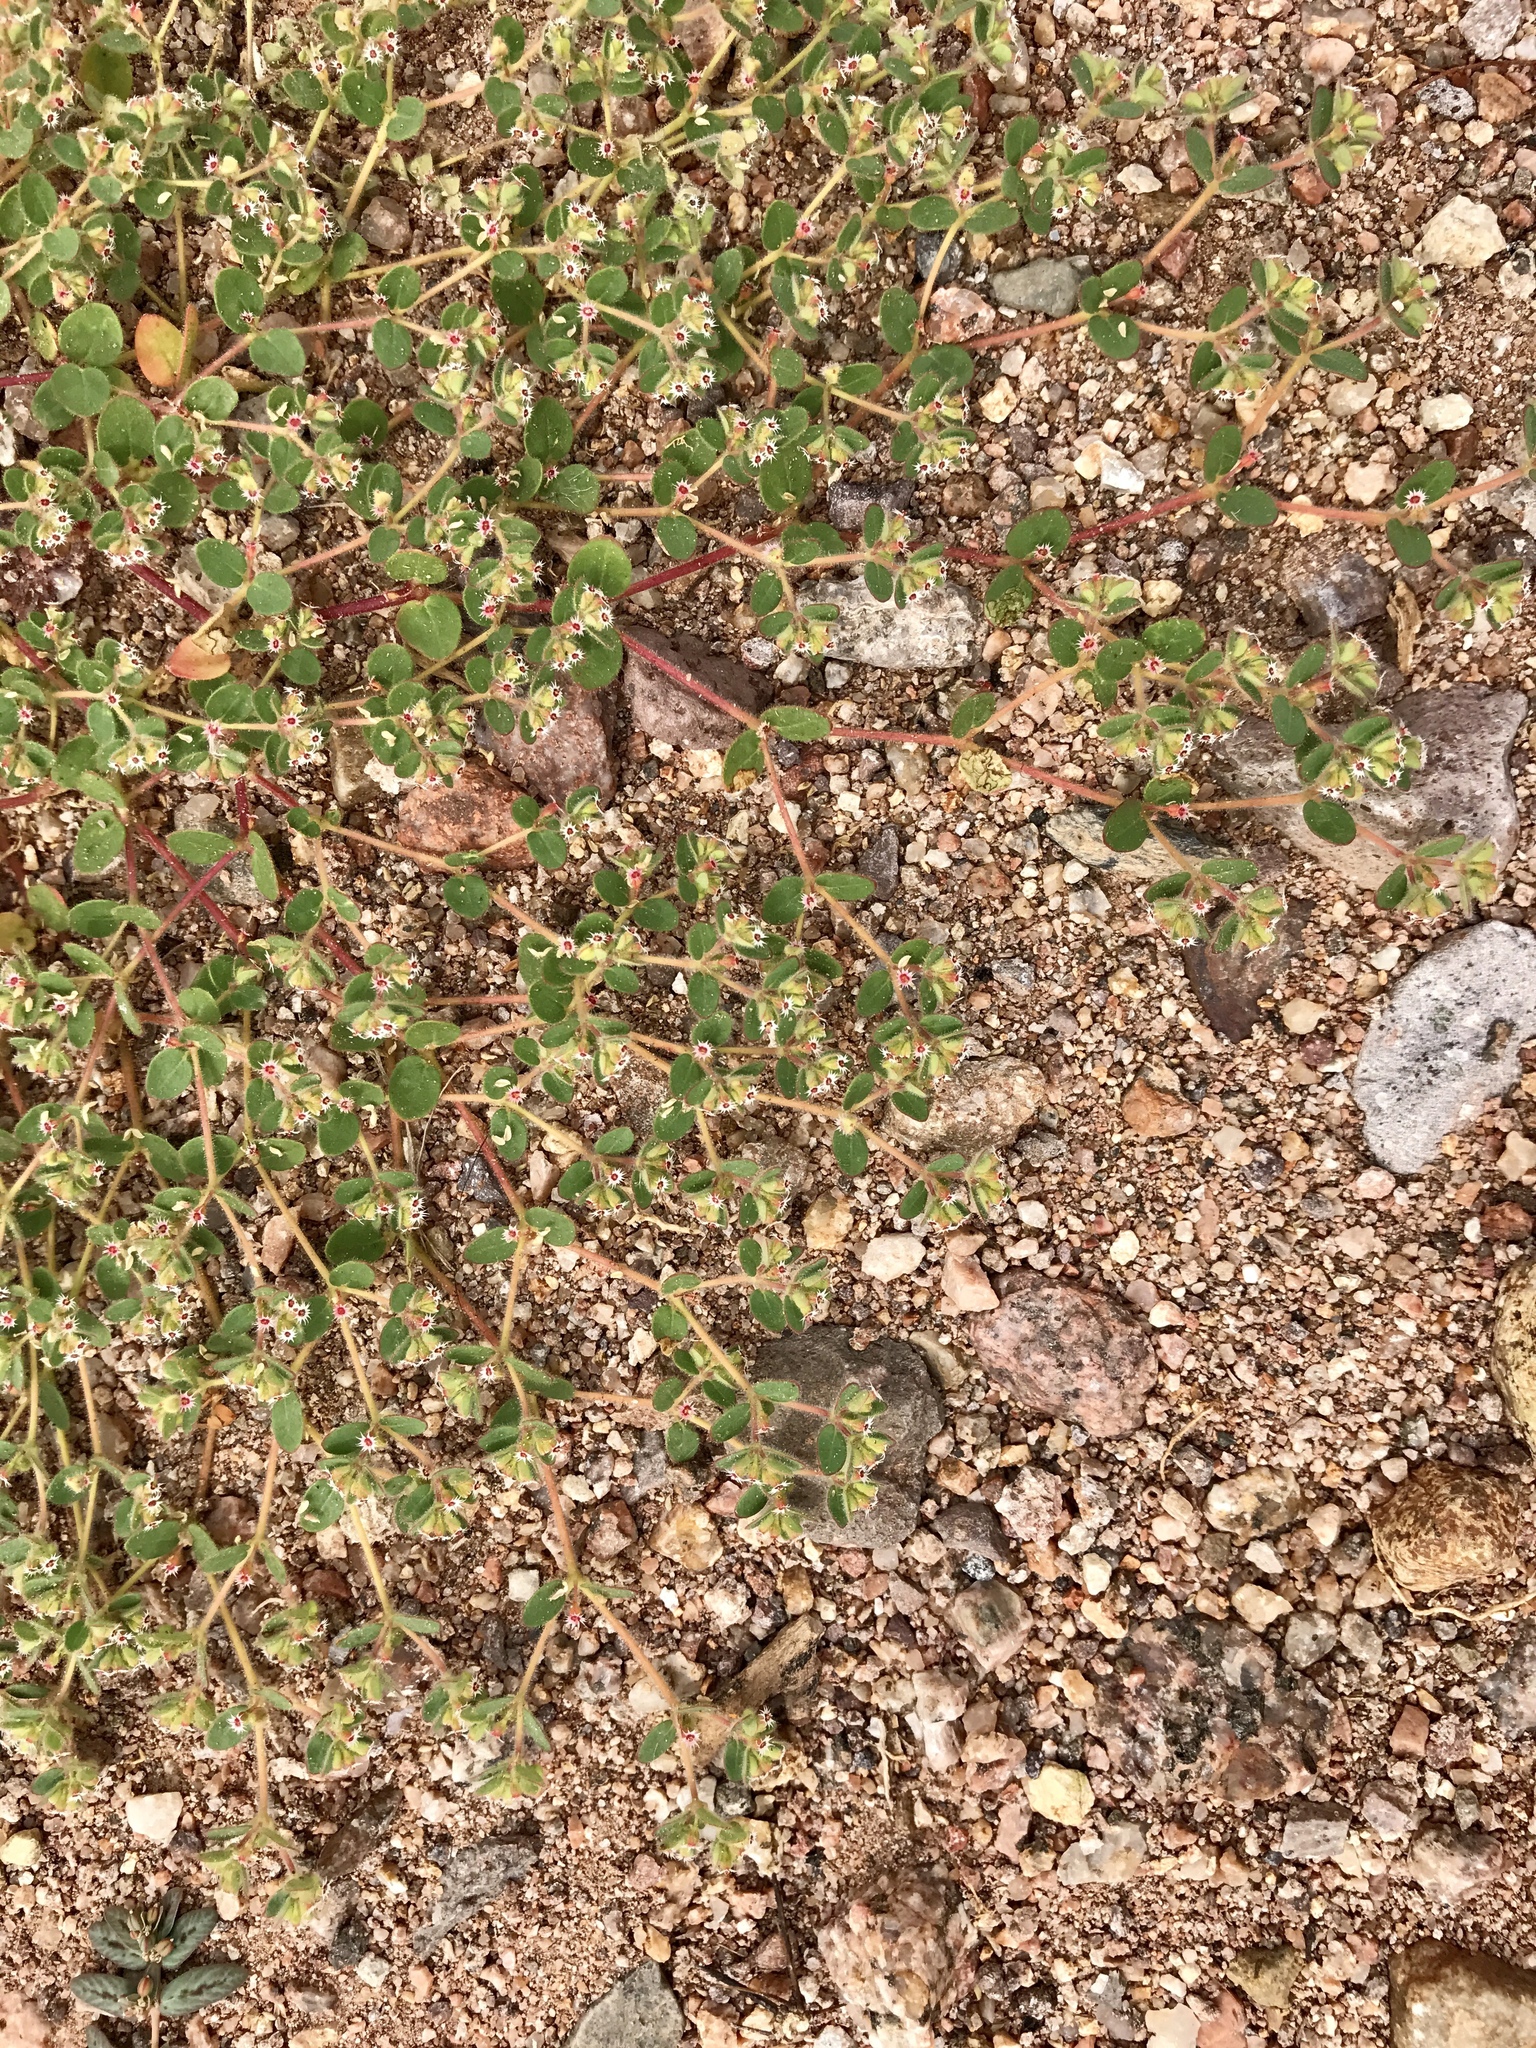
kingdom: Plantae
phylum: Tracheophyta
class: Magnoliopsida
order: Malpighiales
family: Euphorbiaceae
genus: Euphorbia
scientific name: Euphorbia setiloba
